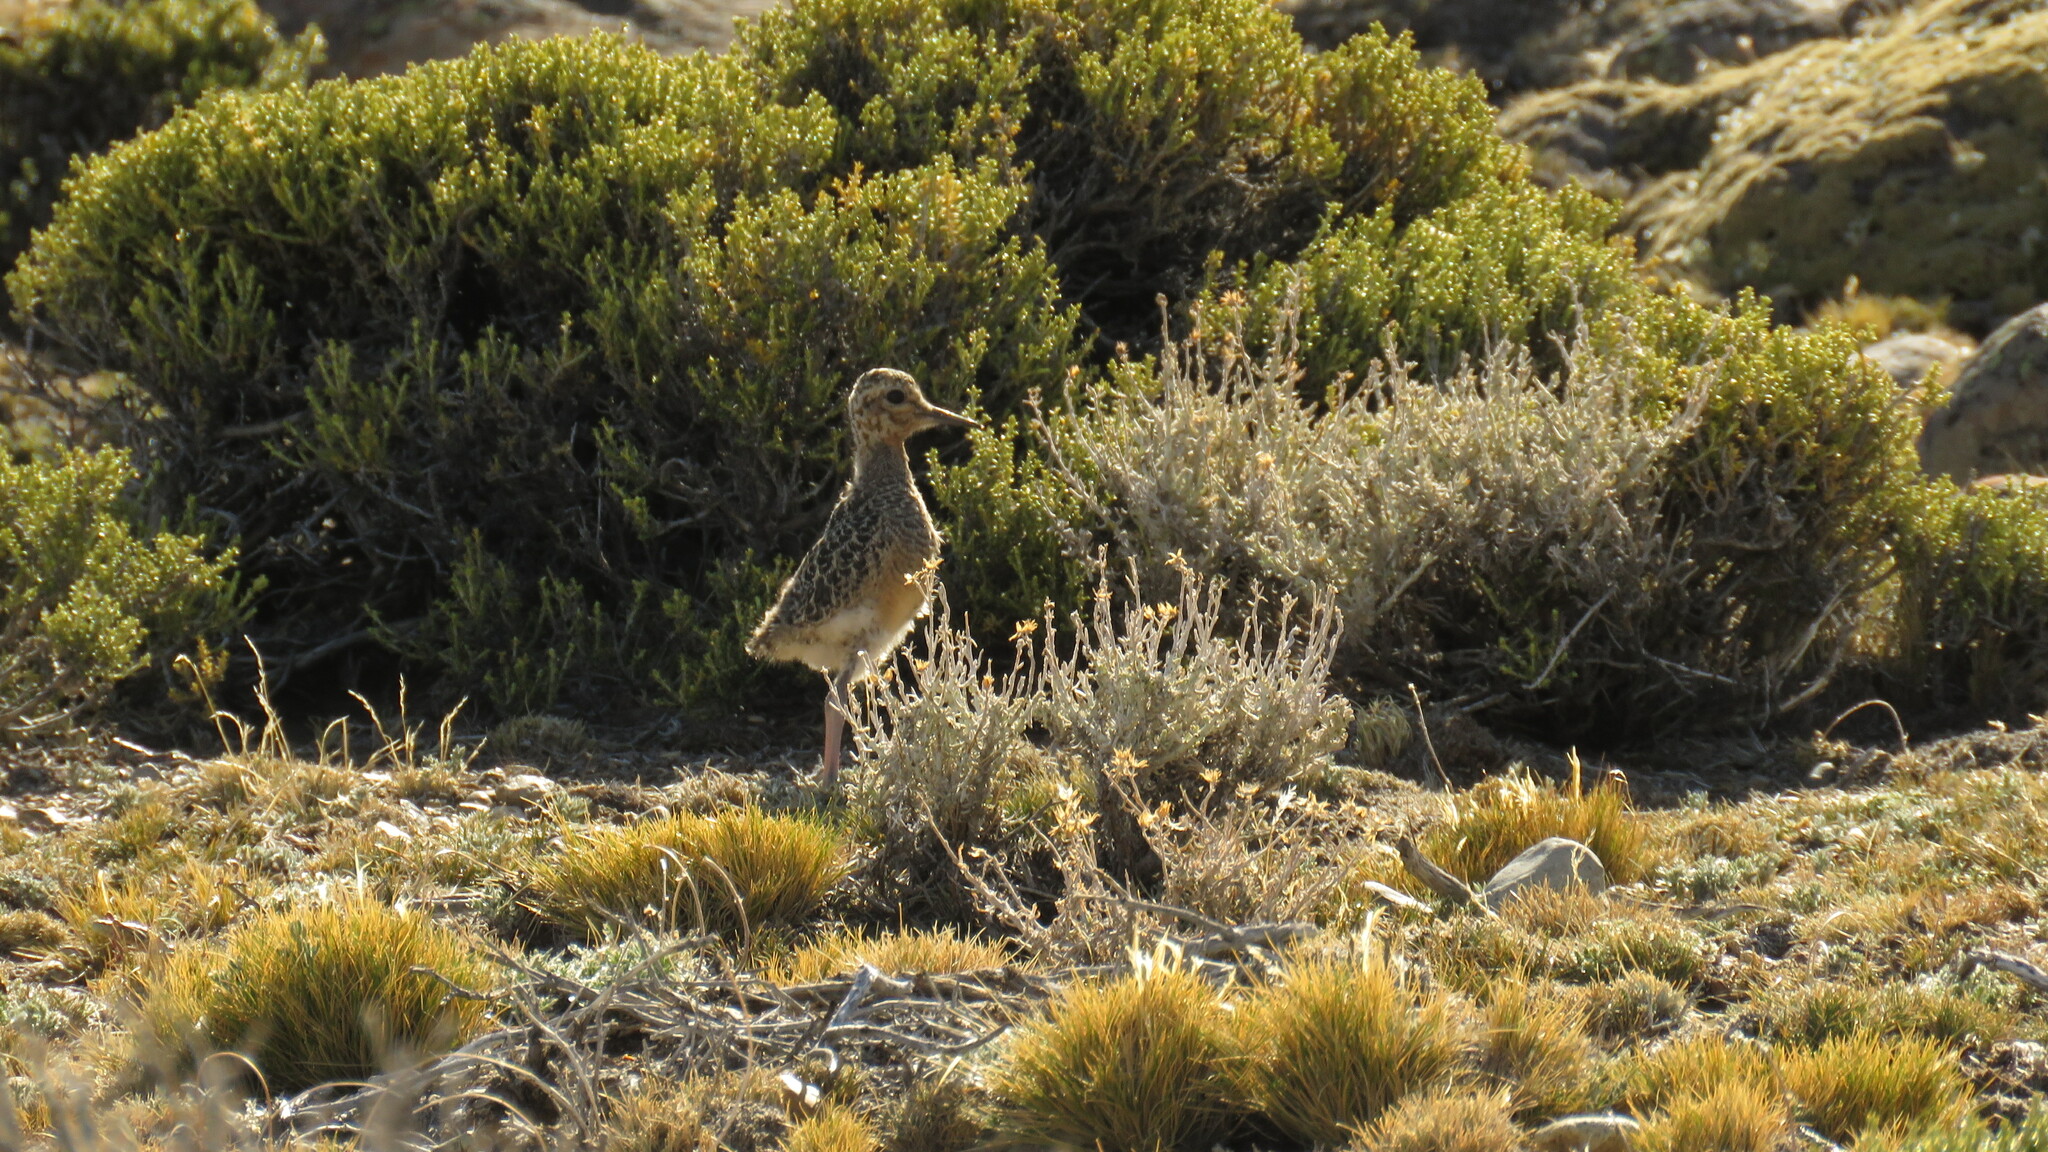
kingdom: Animalia
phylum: Chordata
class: Aves
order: Charadriiformes
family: Charadriidae
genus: Oreopholus
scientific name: Oreopholus ruficollis
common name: Tawny-throated dotterel
